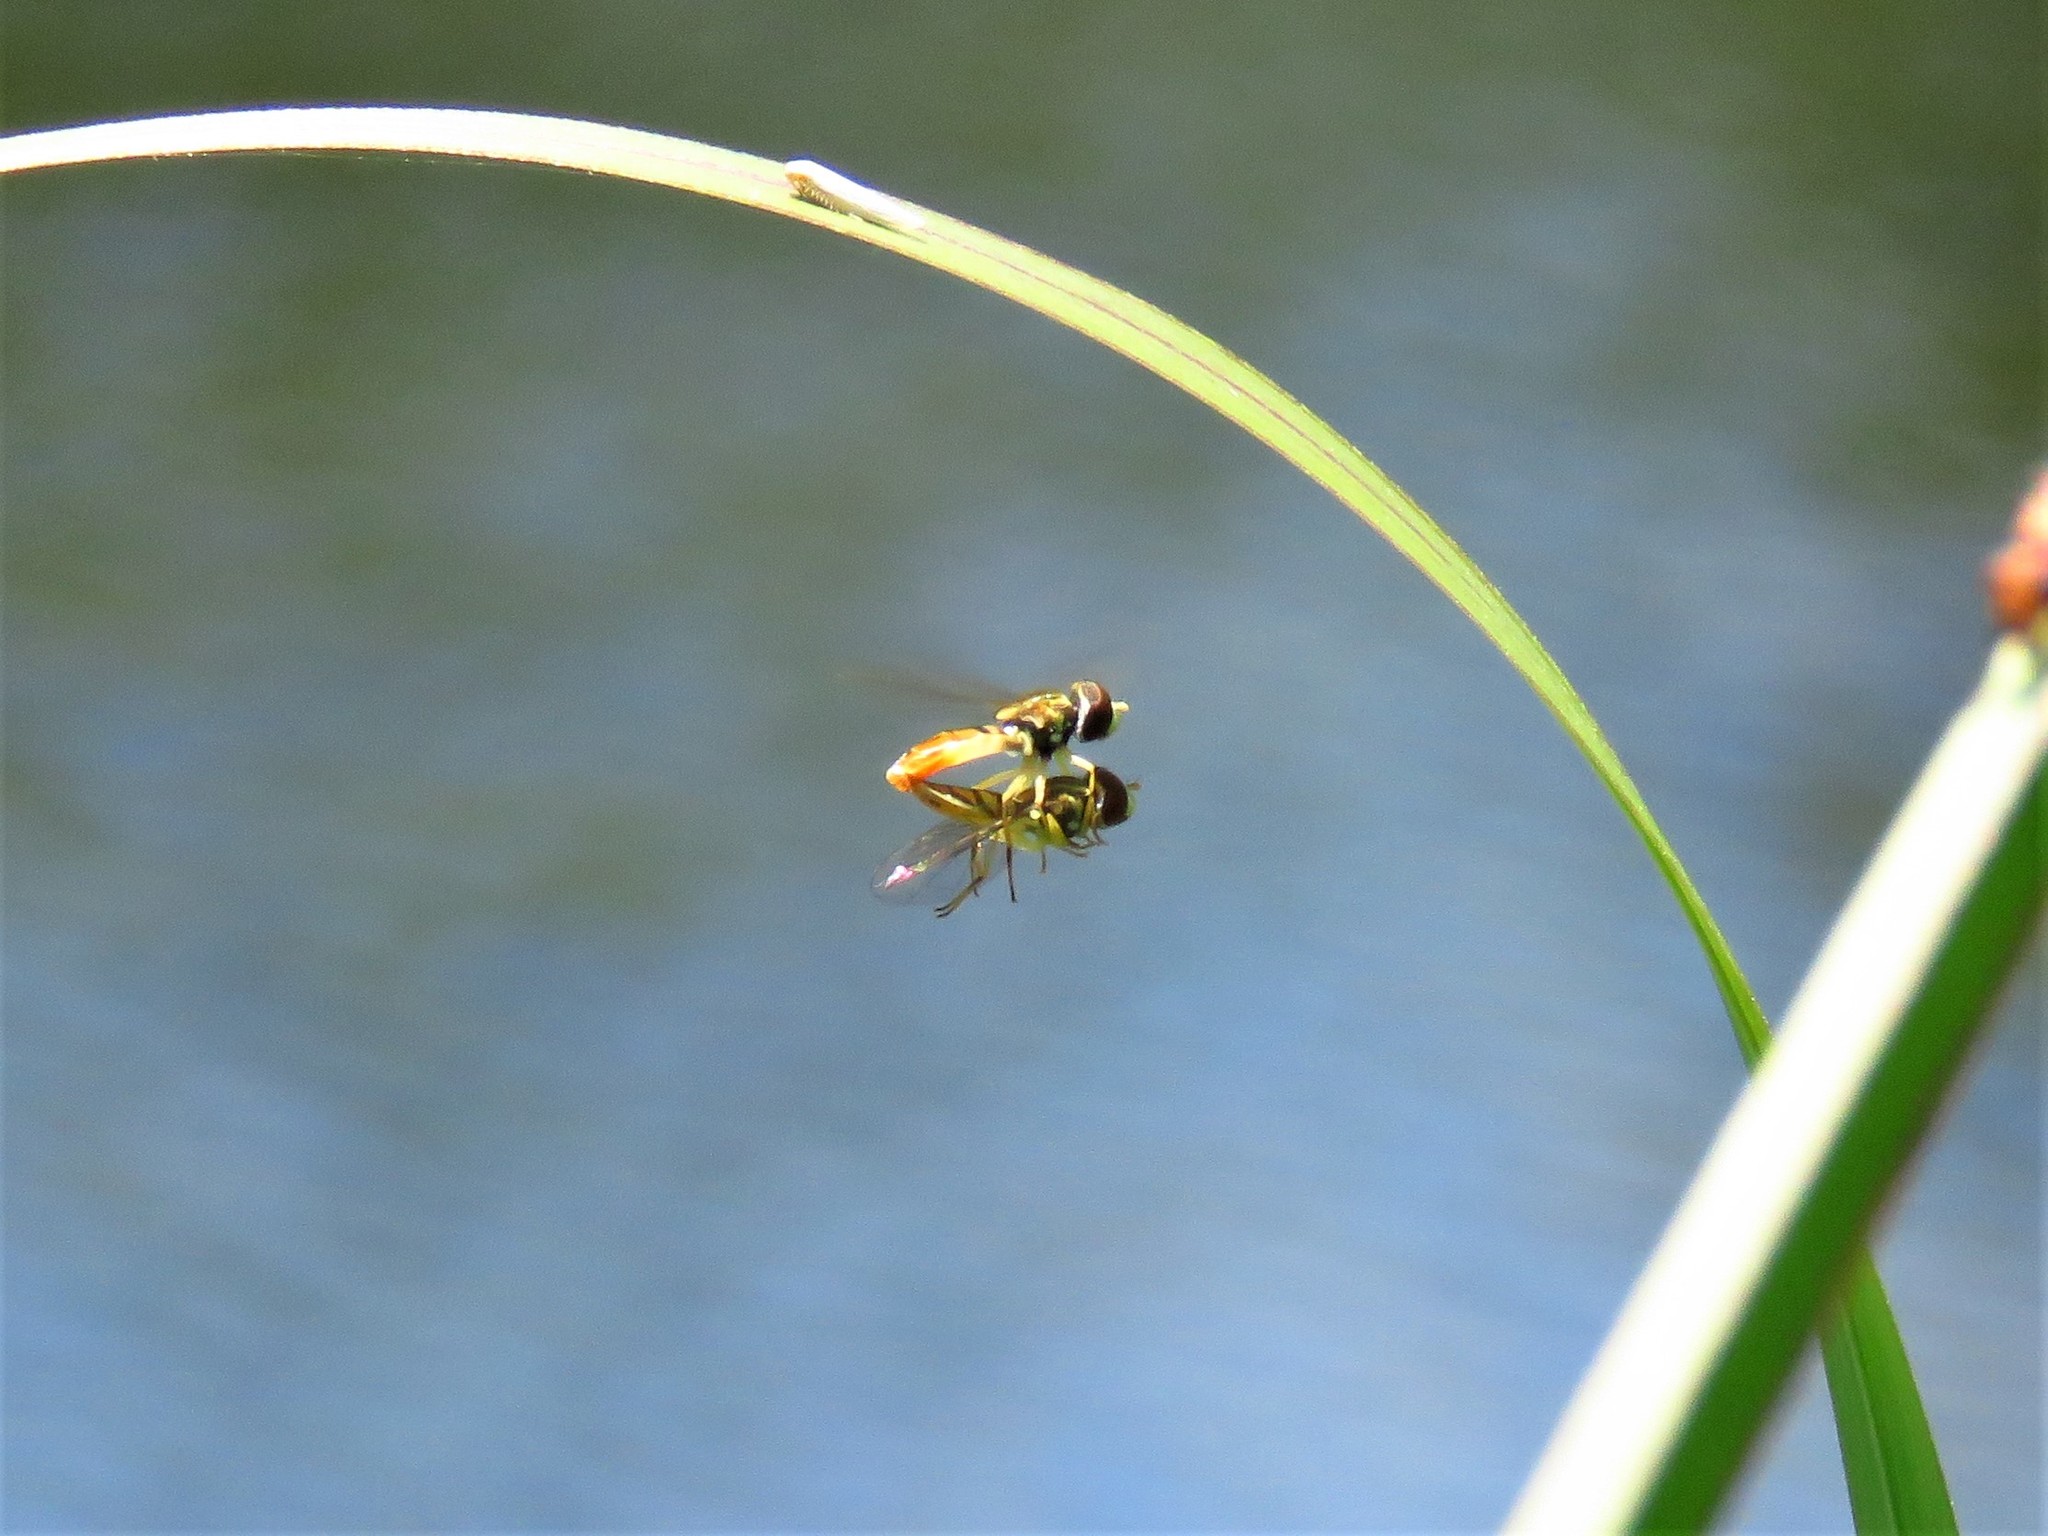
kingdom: Animalia
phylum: Arthropoda
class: Insecta
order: Diptera
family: Syrphidae
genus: Toxomerus
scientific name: Toxomerus marginatus
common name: Syrphid fly
